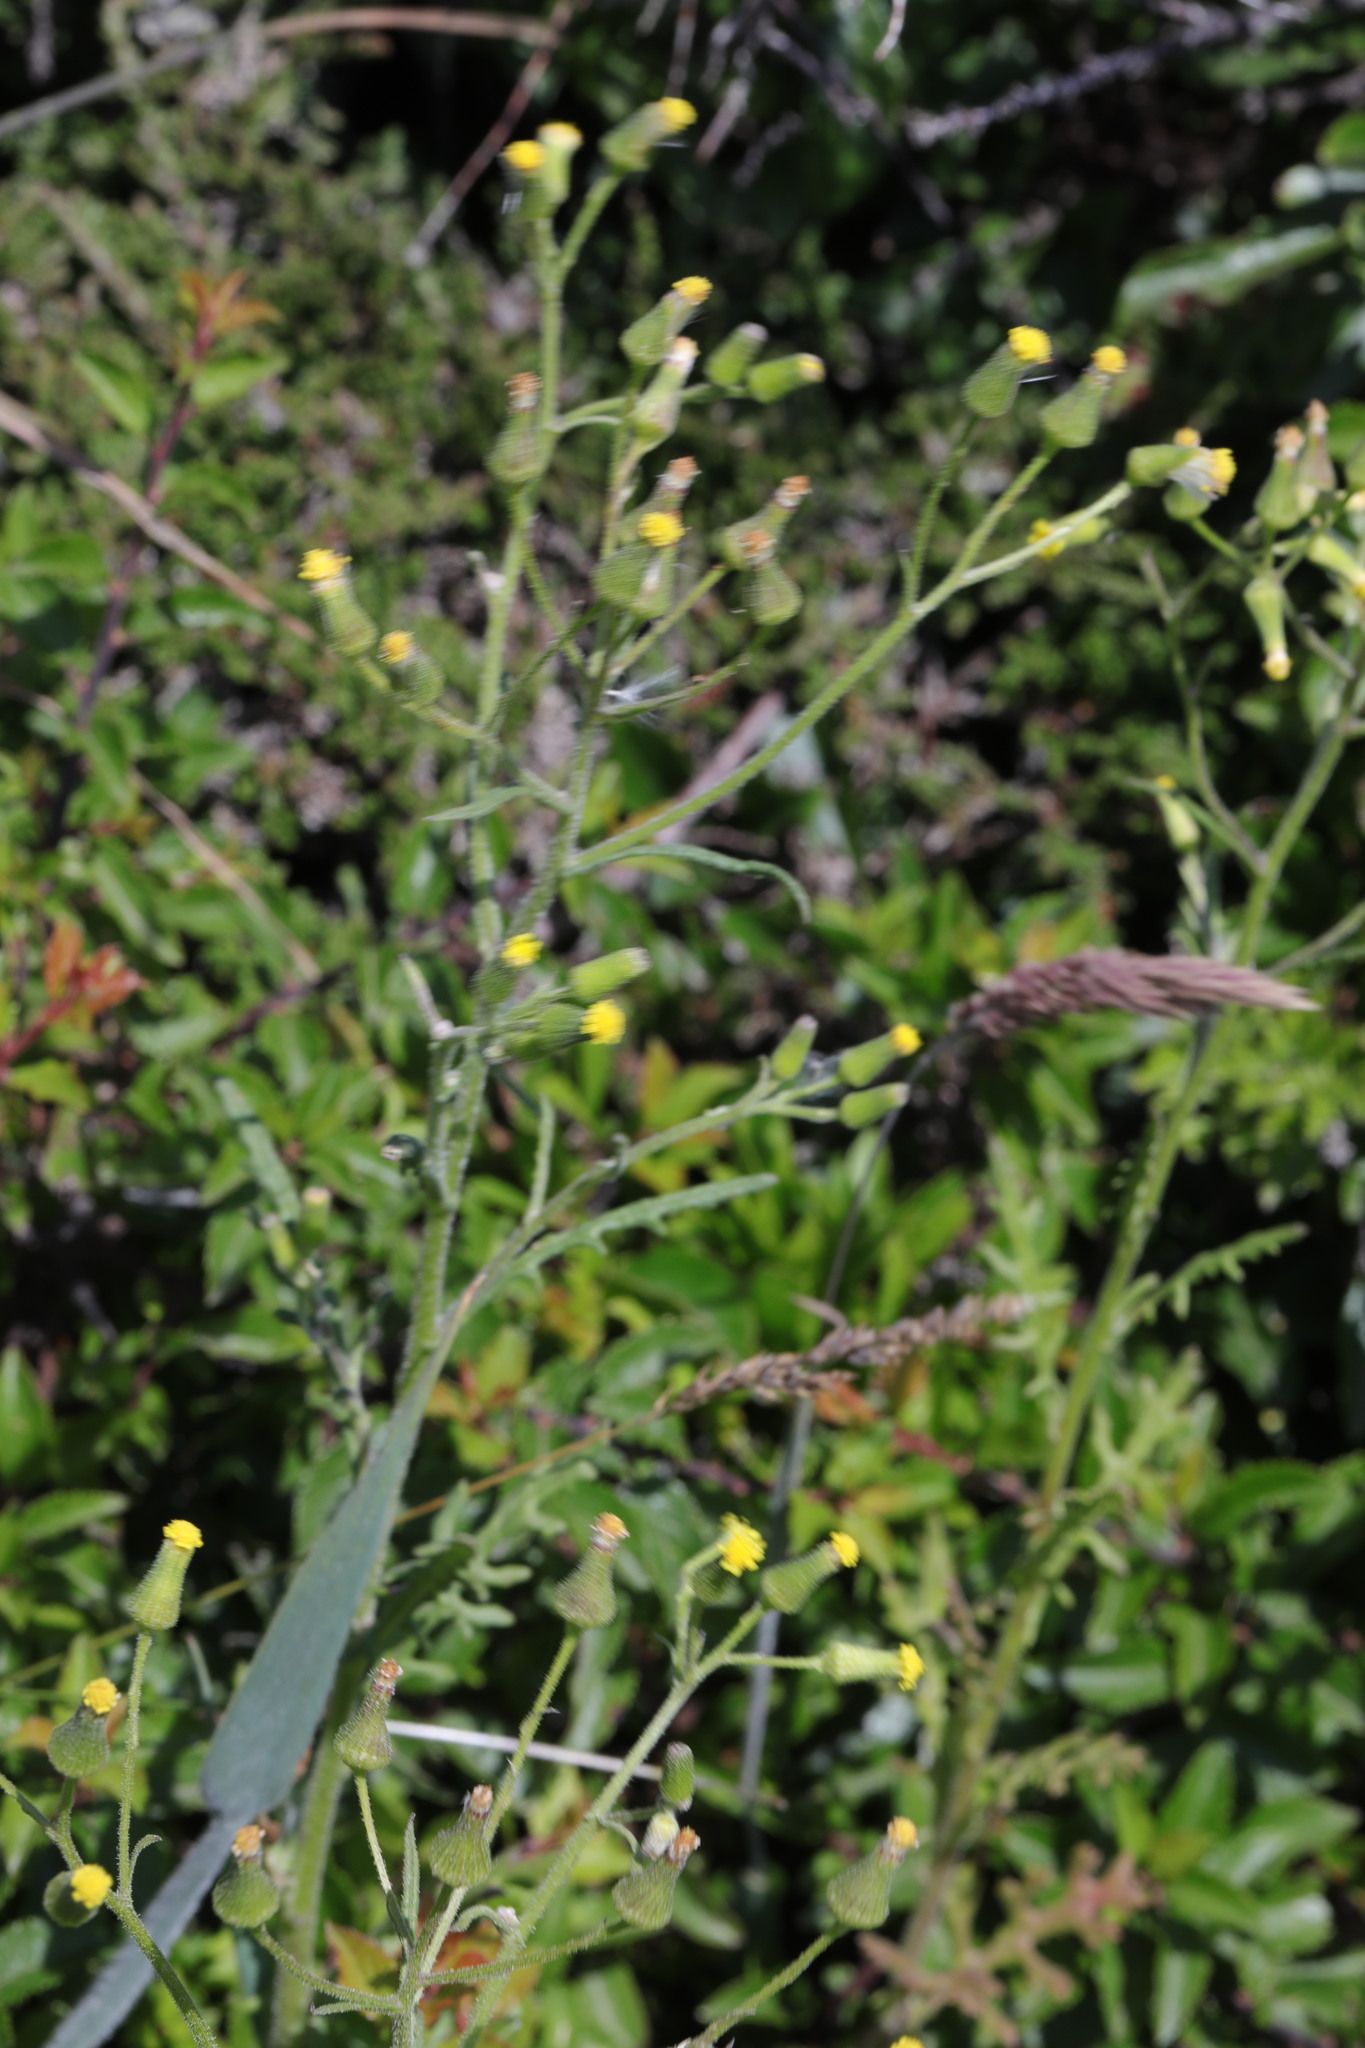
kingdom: Plantae
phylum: Tracheophyta
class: Magnoliopsida
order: Asterales
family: Asteraceae
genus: Senecio
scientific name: Senecio sylvaticus
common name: Woodland ragwort
